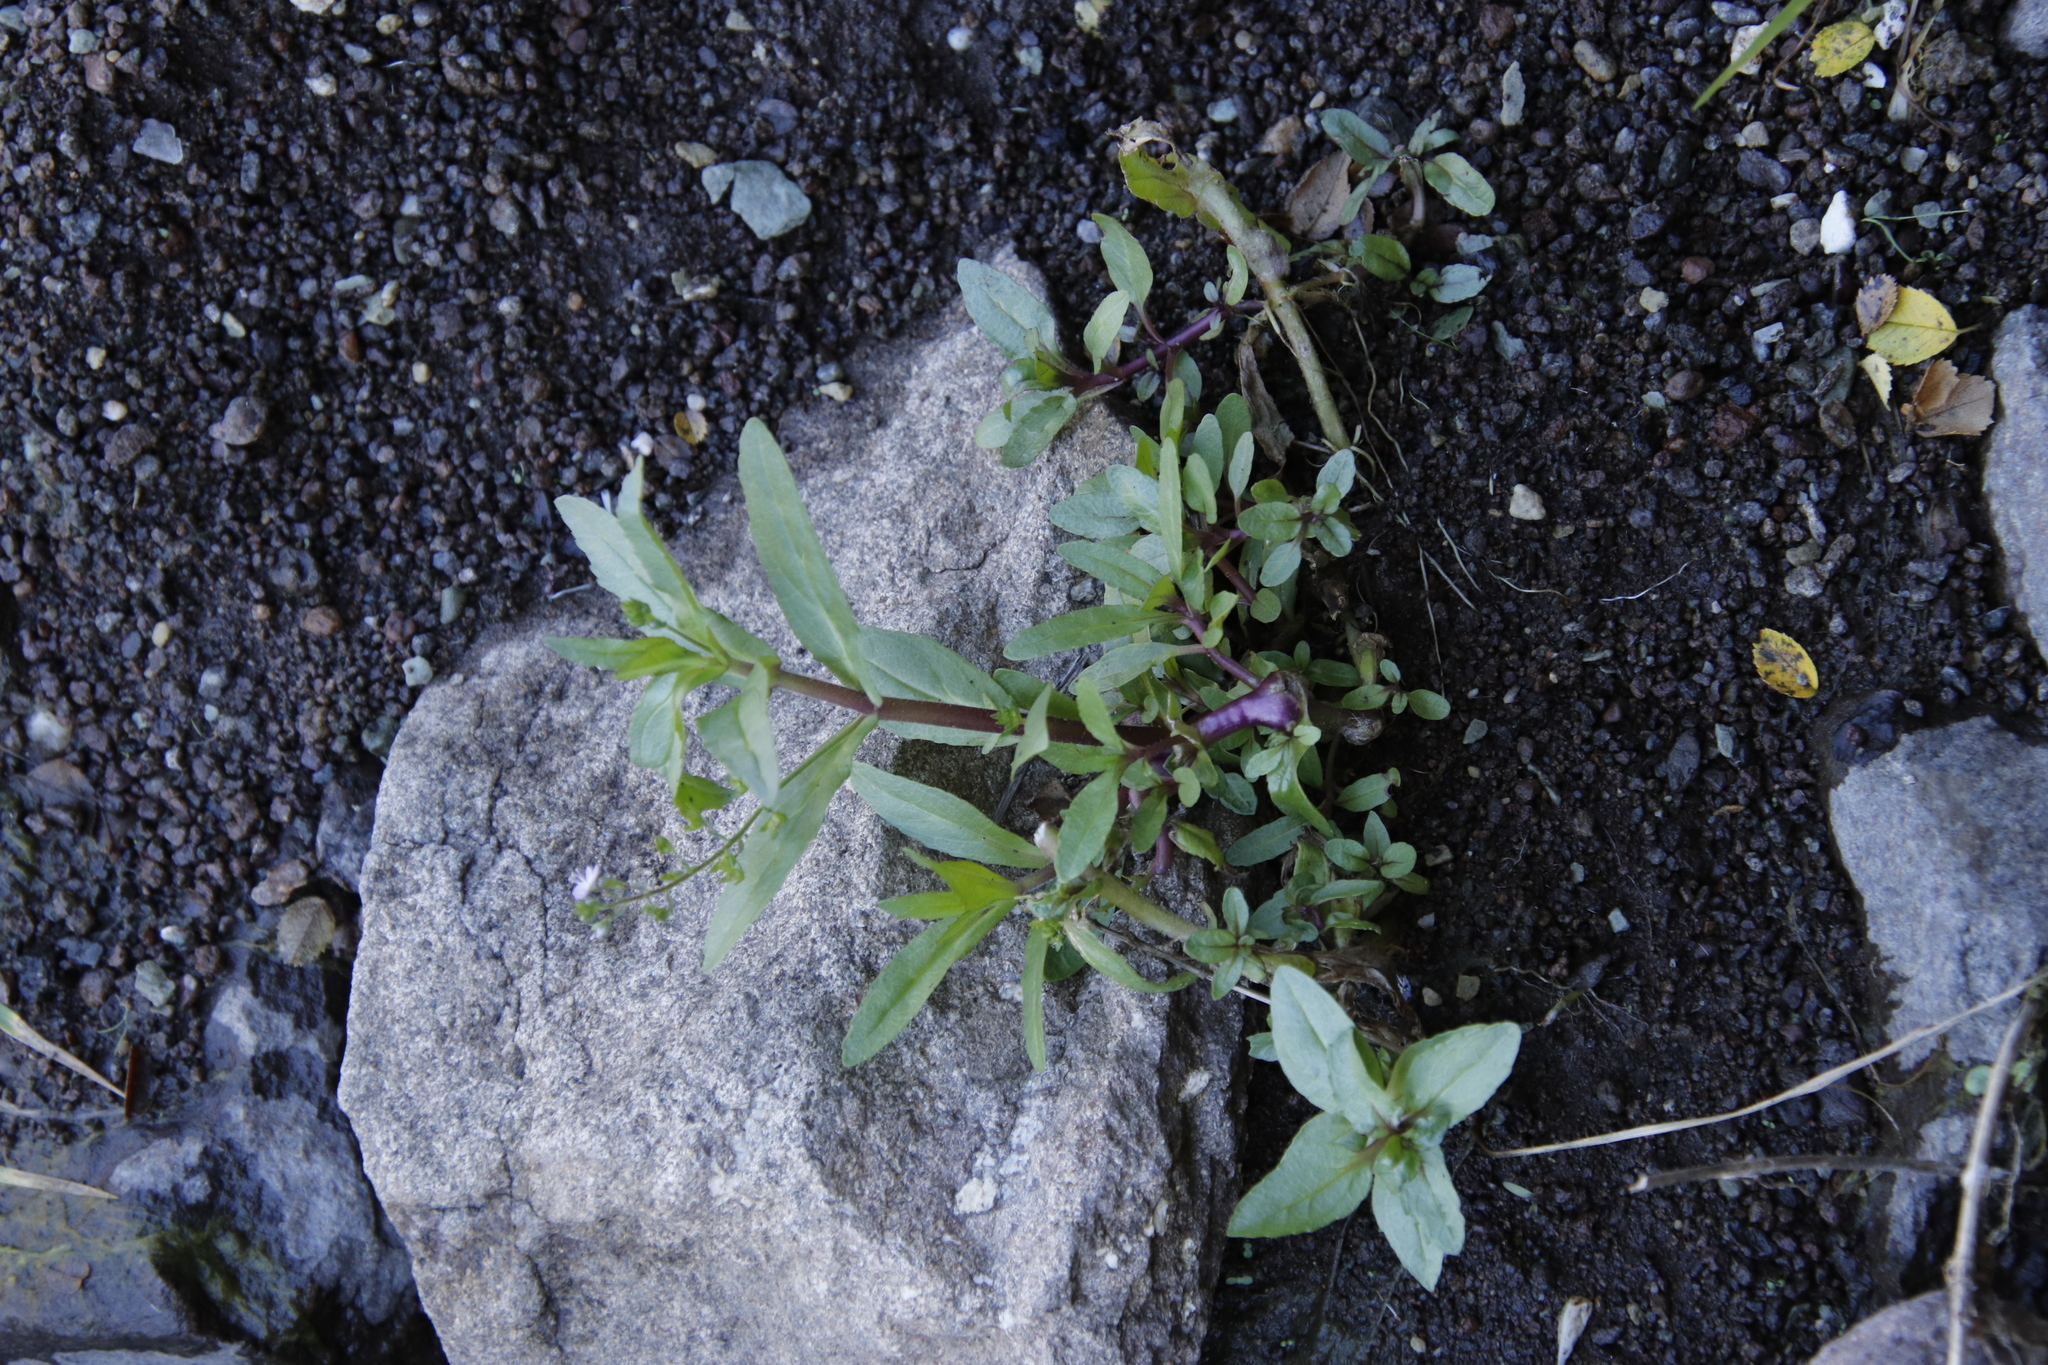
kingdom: Plantae
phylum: Tracheophyta
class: Magnoliopsida
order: Lamiales
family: Plantaginaceae
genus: Veronica
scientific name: Veronica anagallis-aquatica
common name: Water speedwell
